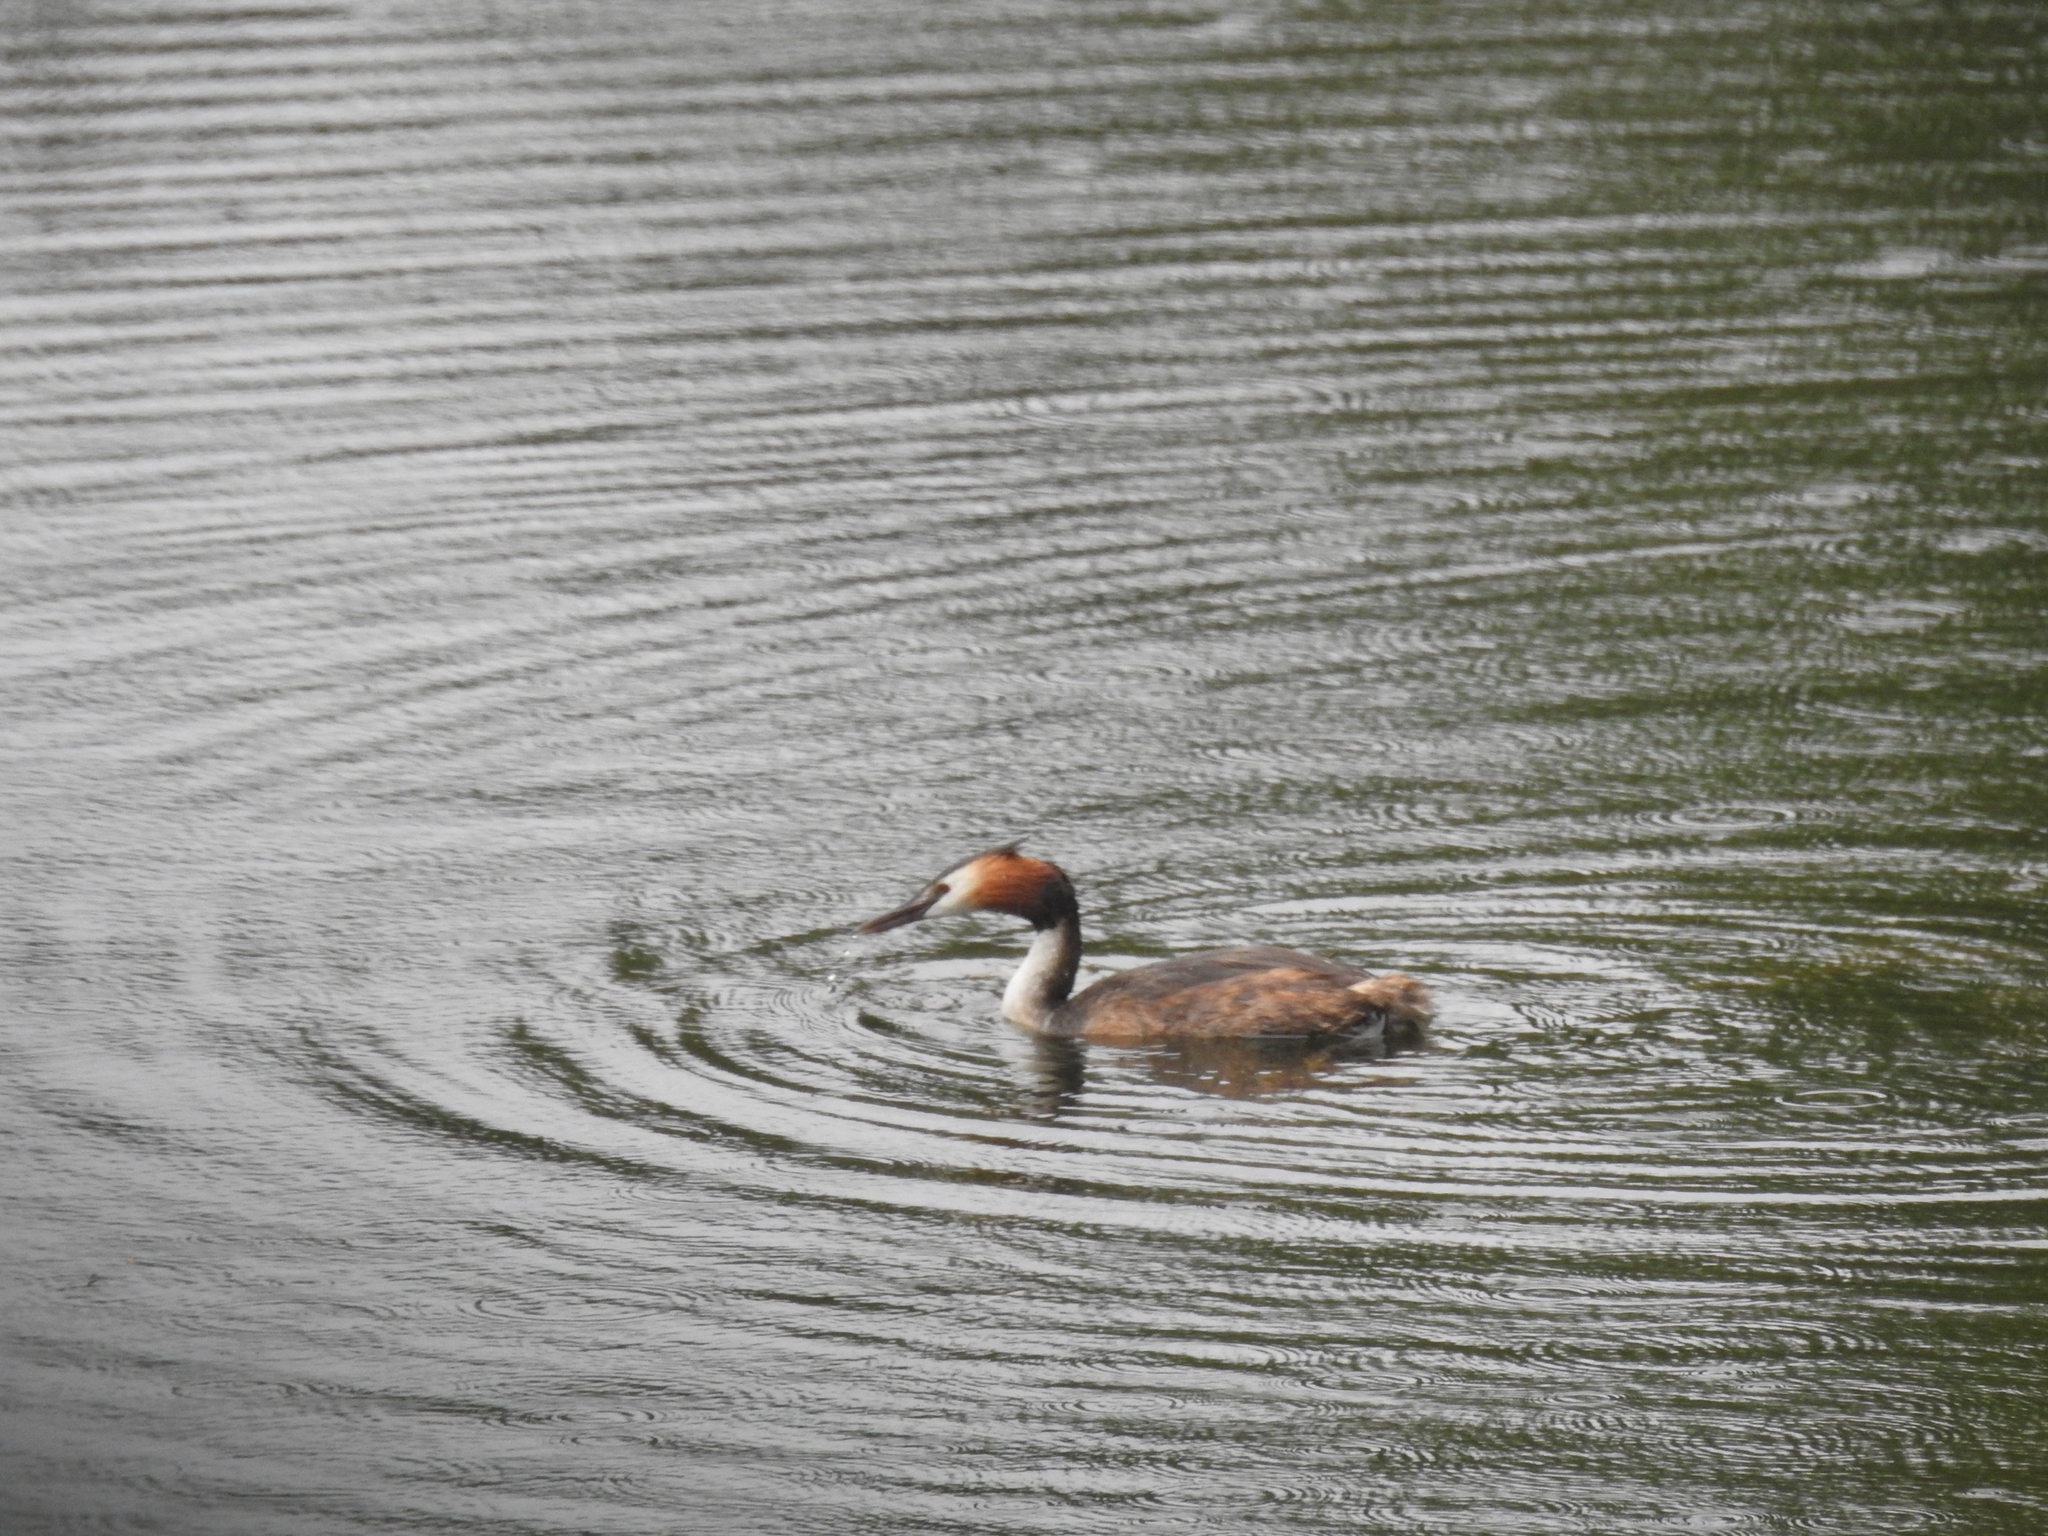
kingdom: Animalia
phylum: Chordata
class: Aves
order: Podicipediformes
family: Podicipedidae
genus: Podiceps
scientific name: Podiceps cristatus
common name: Great crested grebe
